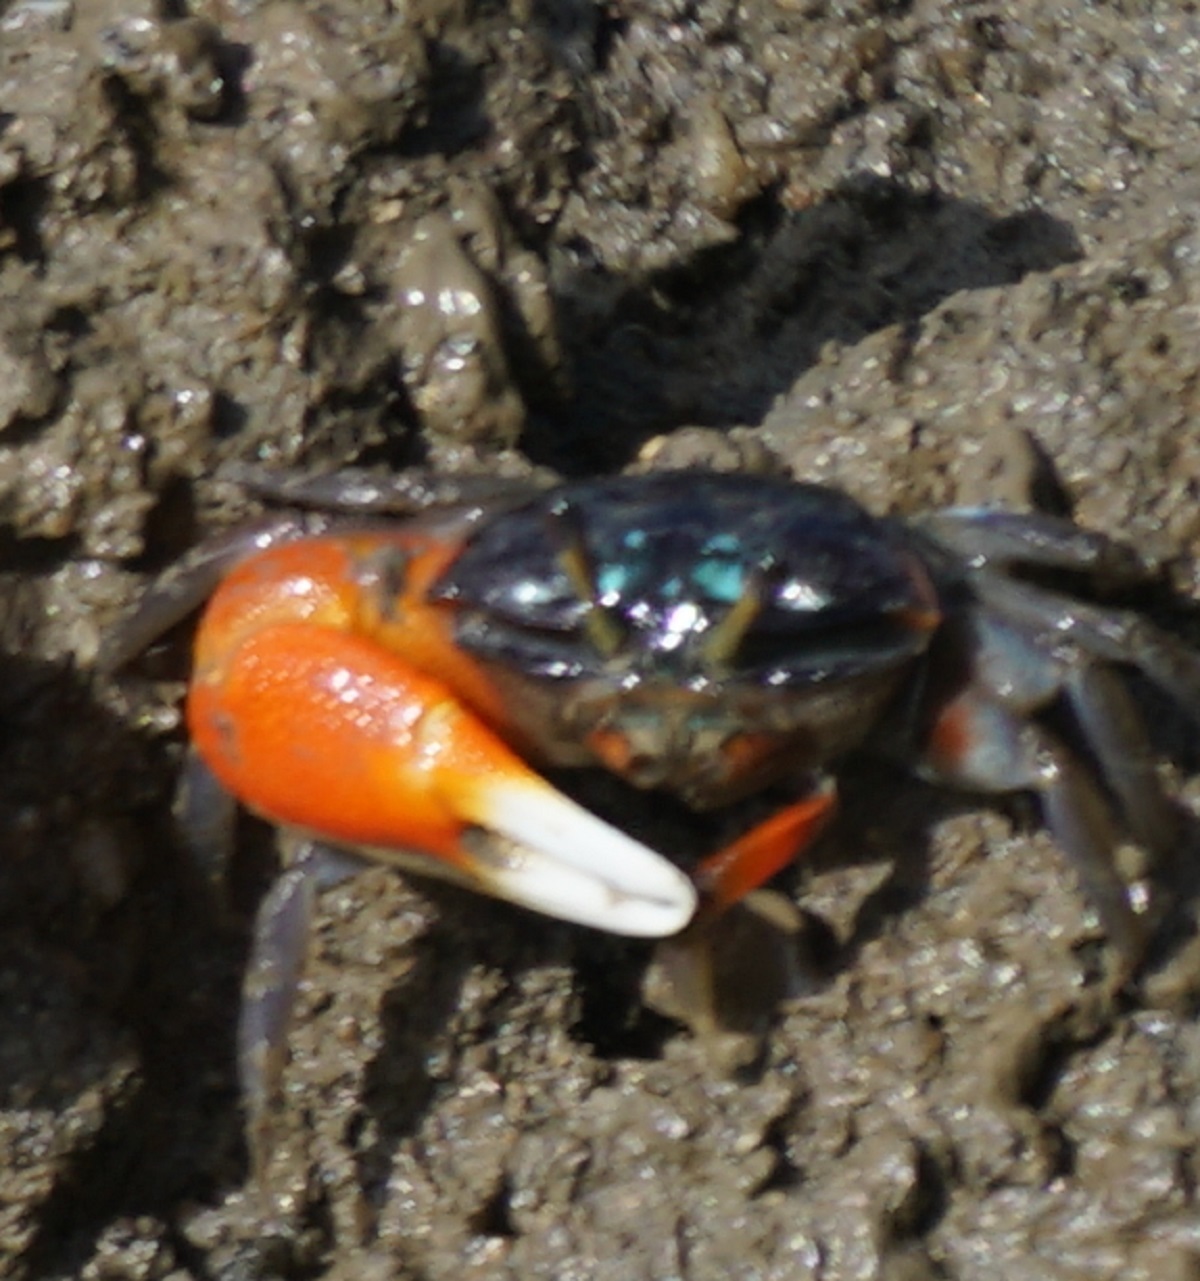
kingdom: Animalia
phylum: Arthropoda
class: Malacostraca
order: Decapoda
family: Ocypodidae
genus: Tubuca
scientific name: Tubuca coarctata
